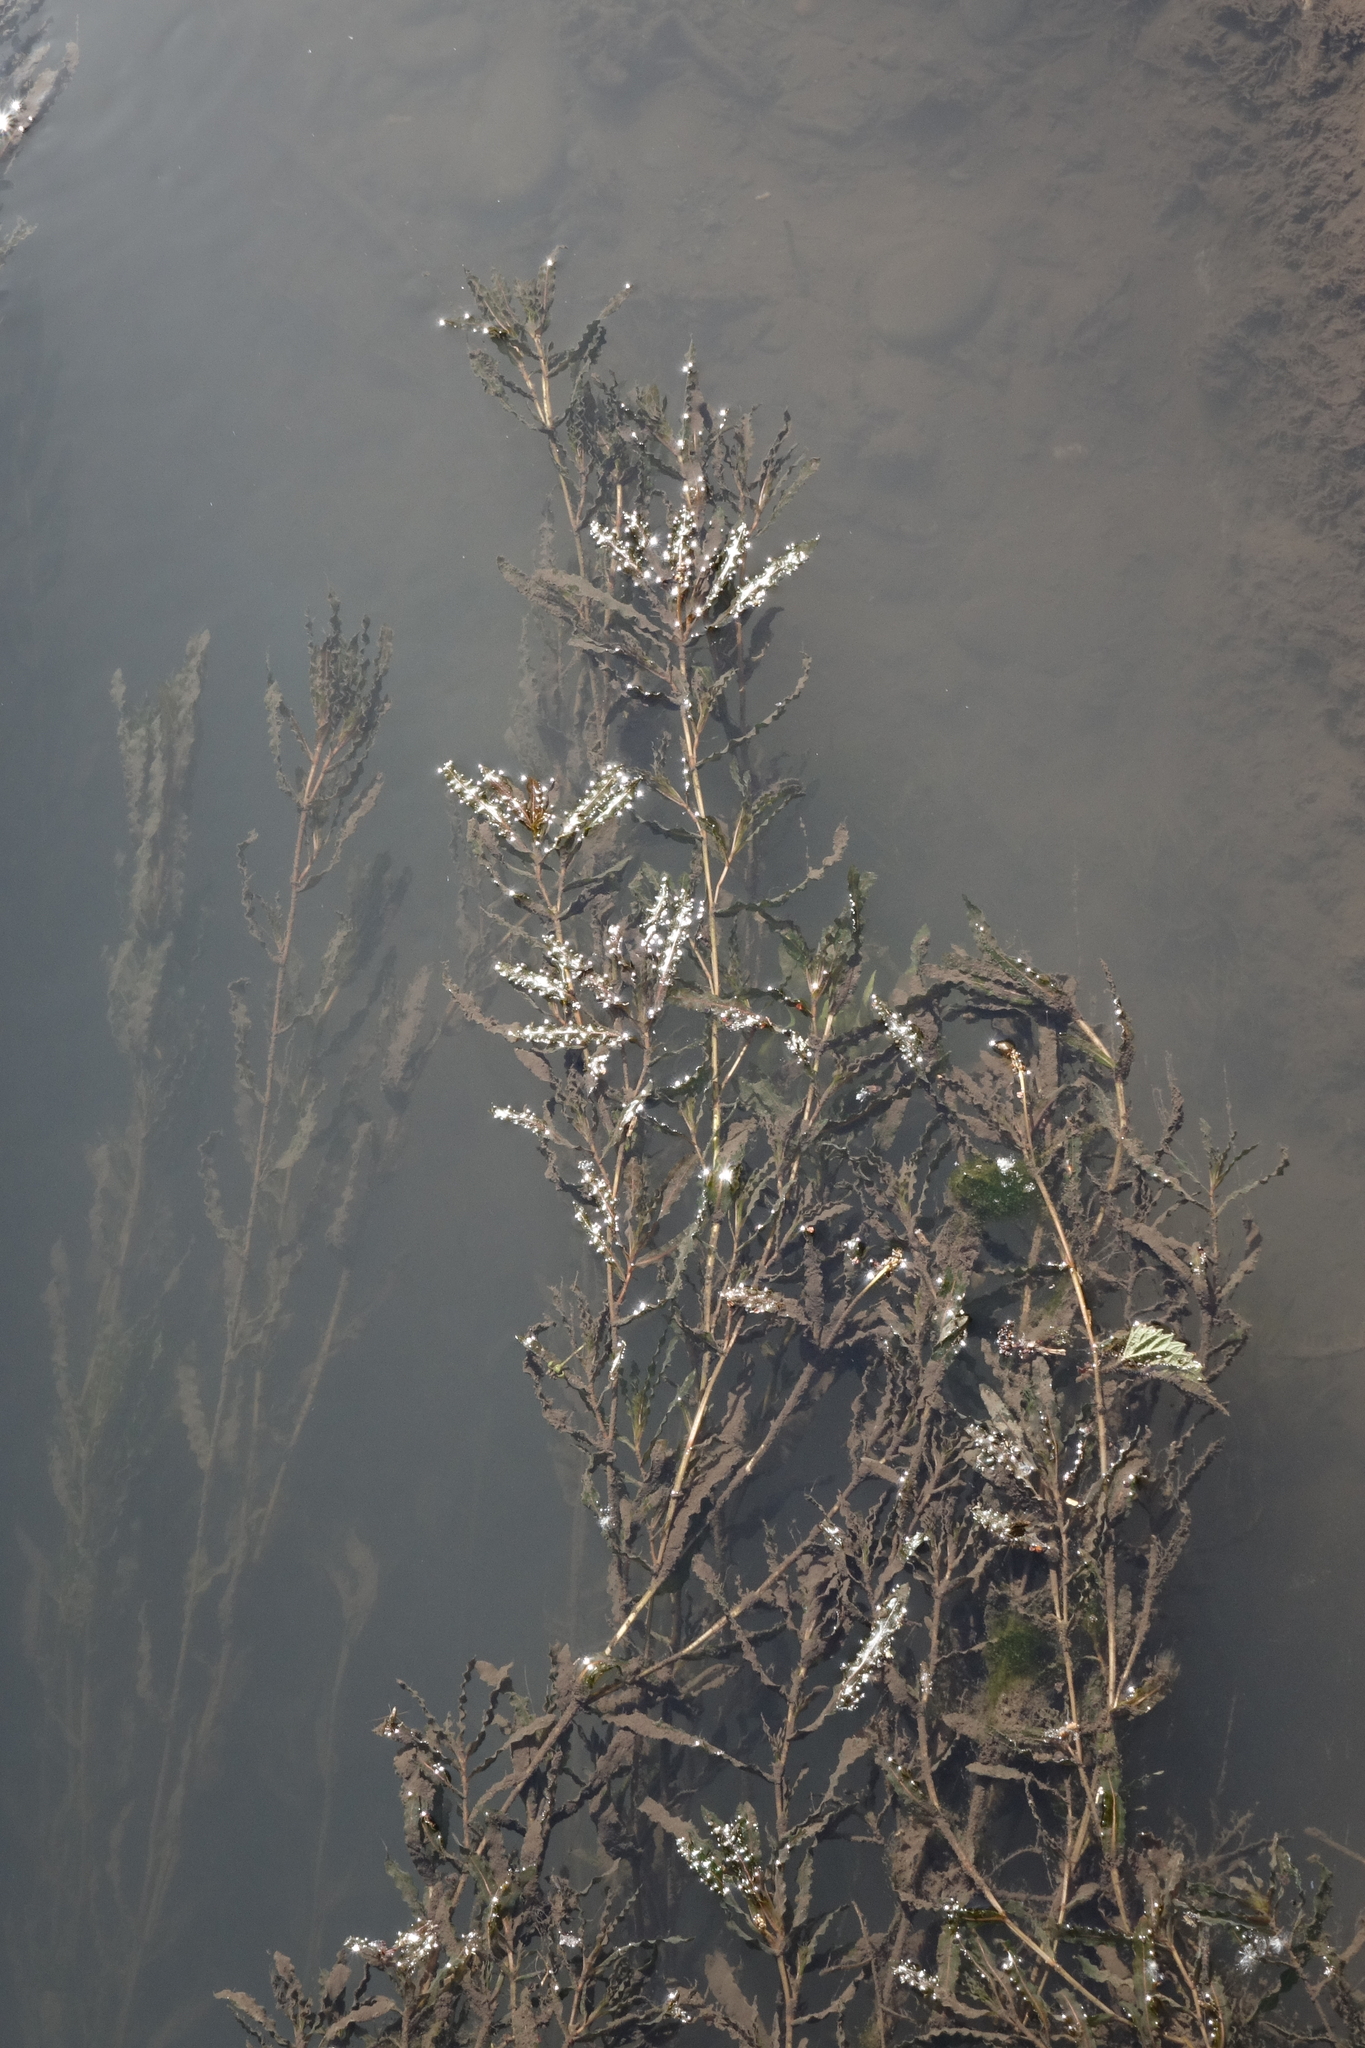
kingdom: Plantae
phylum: Tracheophyta
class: Liliopsida
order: Alismatales
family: Potamogetonaceae
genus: Potamogeton
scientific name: Potamogeton crispus
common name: Curled pondweed
